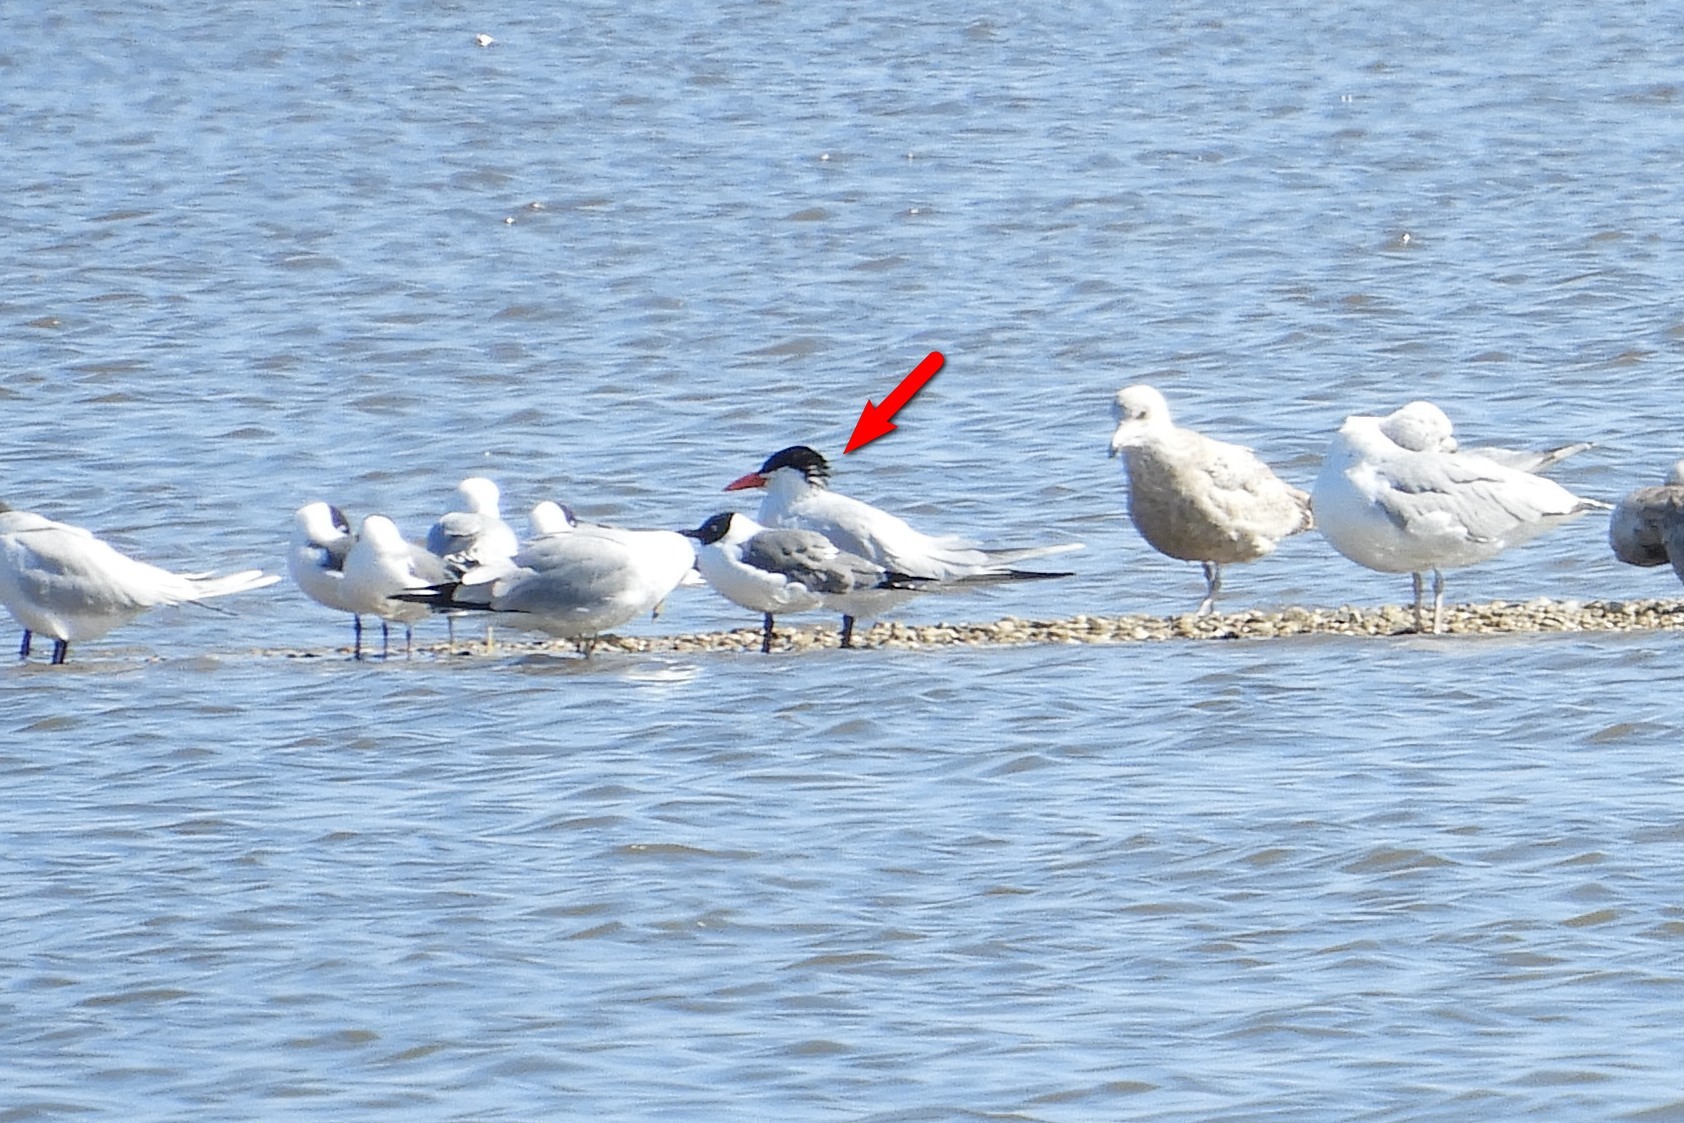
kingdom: Animalia
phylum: Chordata
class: Aves
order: Charadriiformes
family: Laridae
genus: Hydroprogne
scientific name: Hydroprogne caspia
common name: Caspian tern
